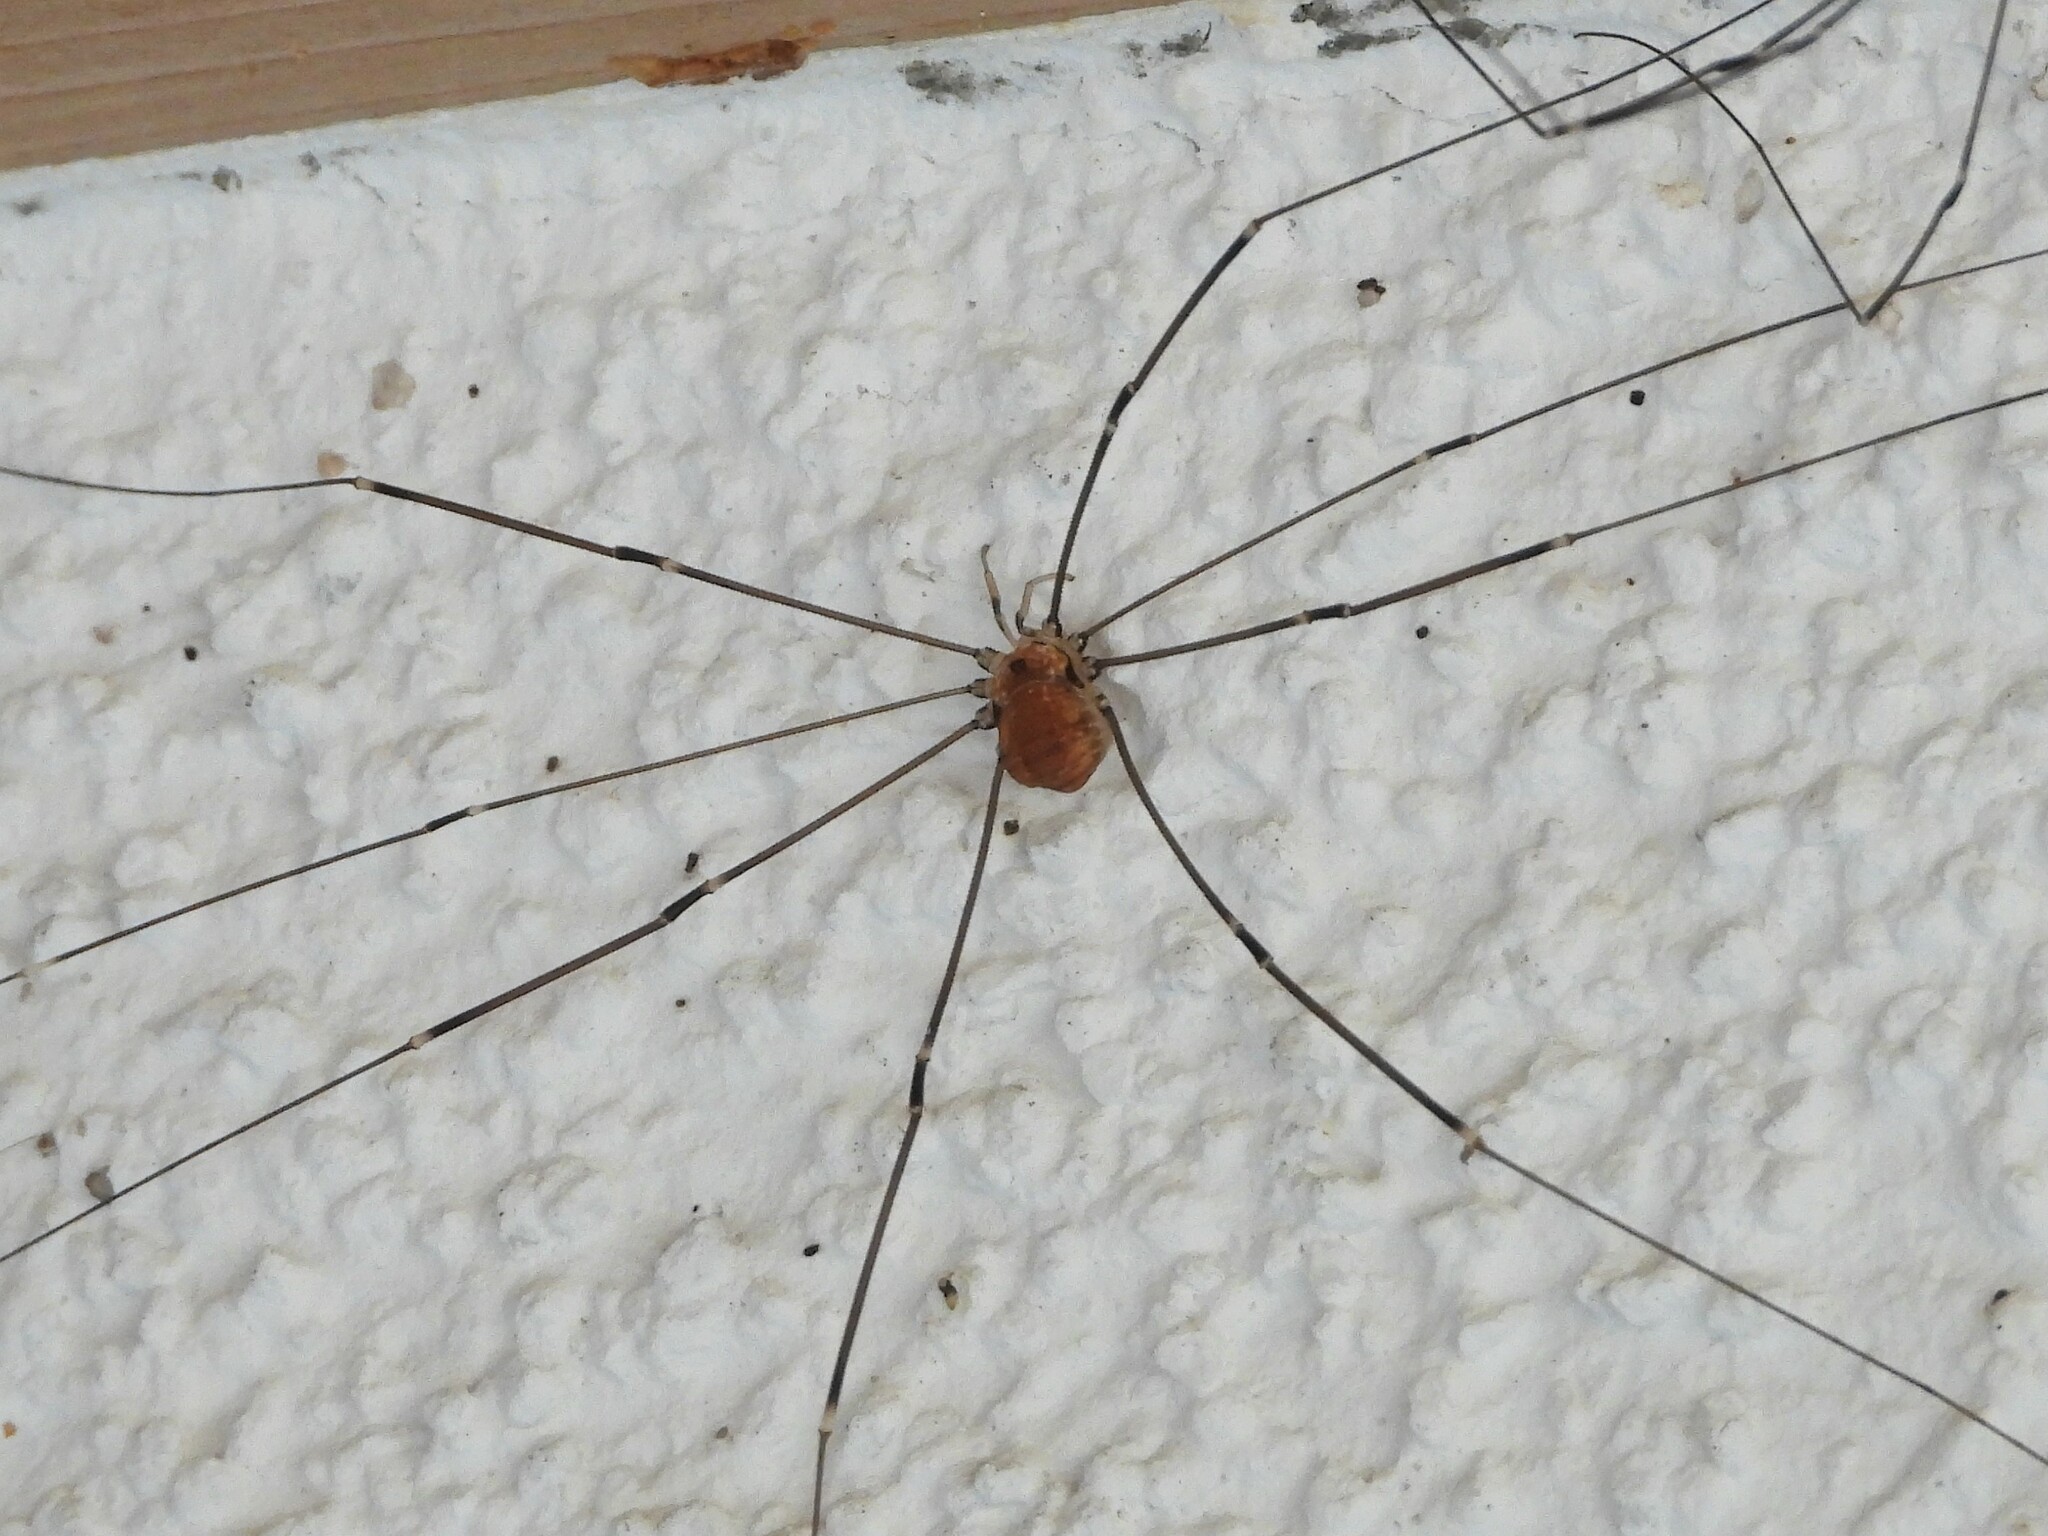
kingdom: Animalia
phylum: Arthropoda
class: Arachnida
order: Opiliones
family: Sclerosomatidae
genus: Leiobunum
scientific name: Leiobunum limbatum
